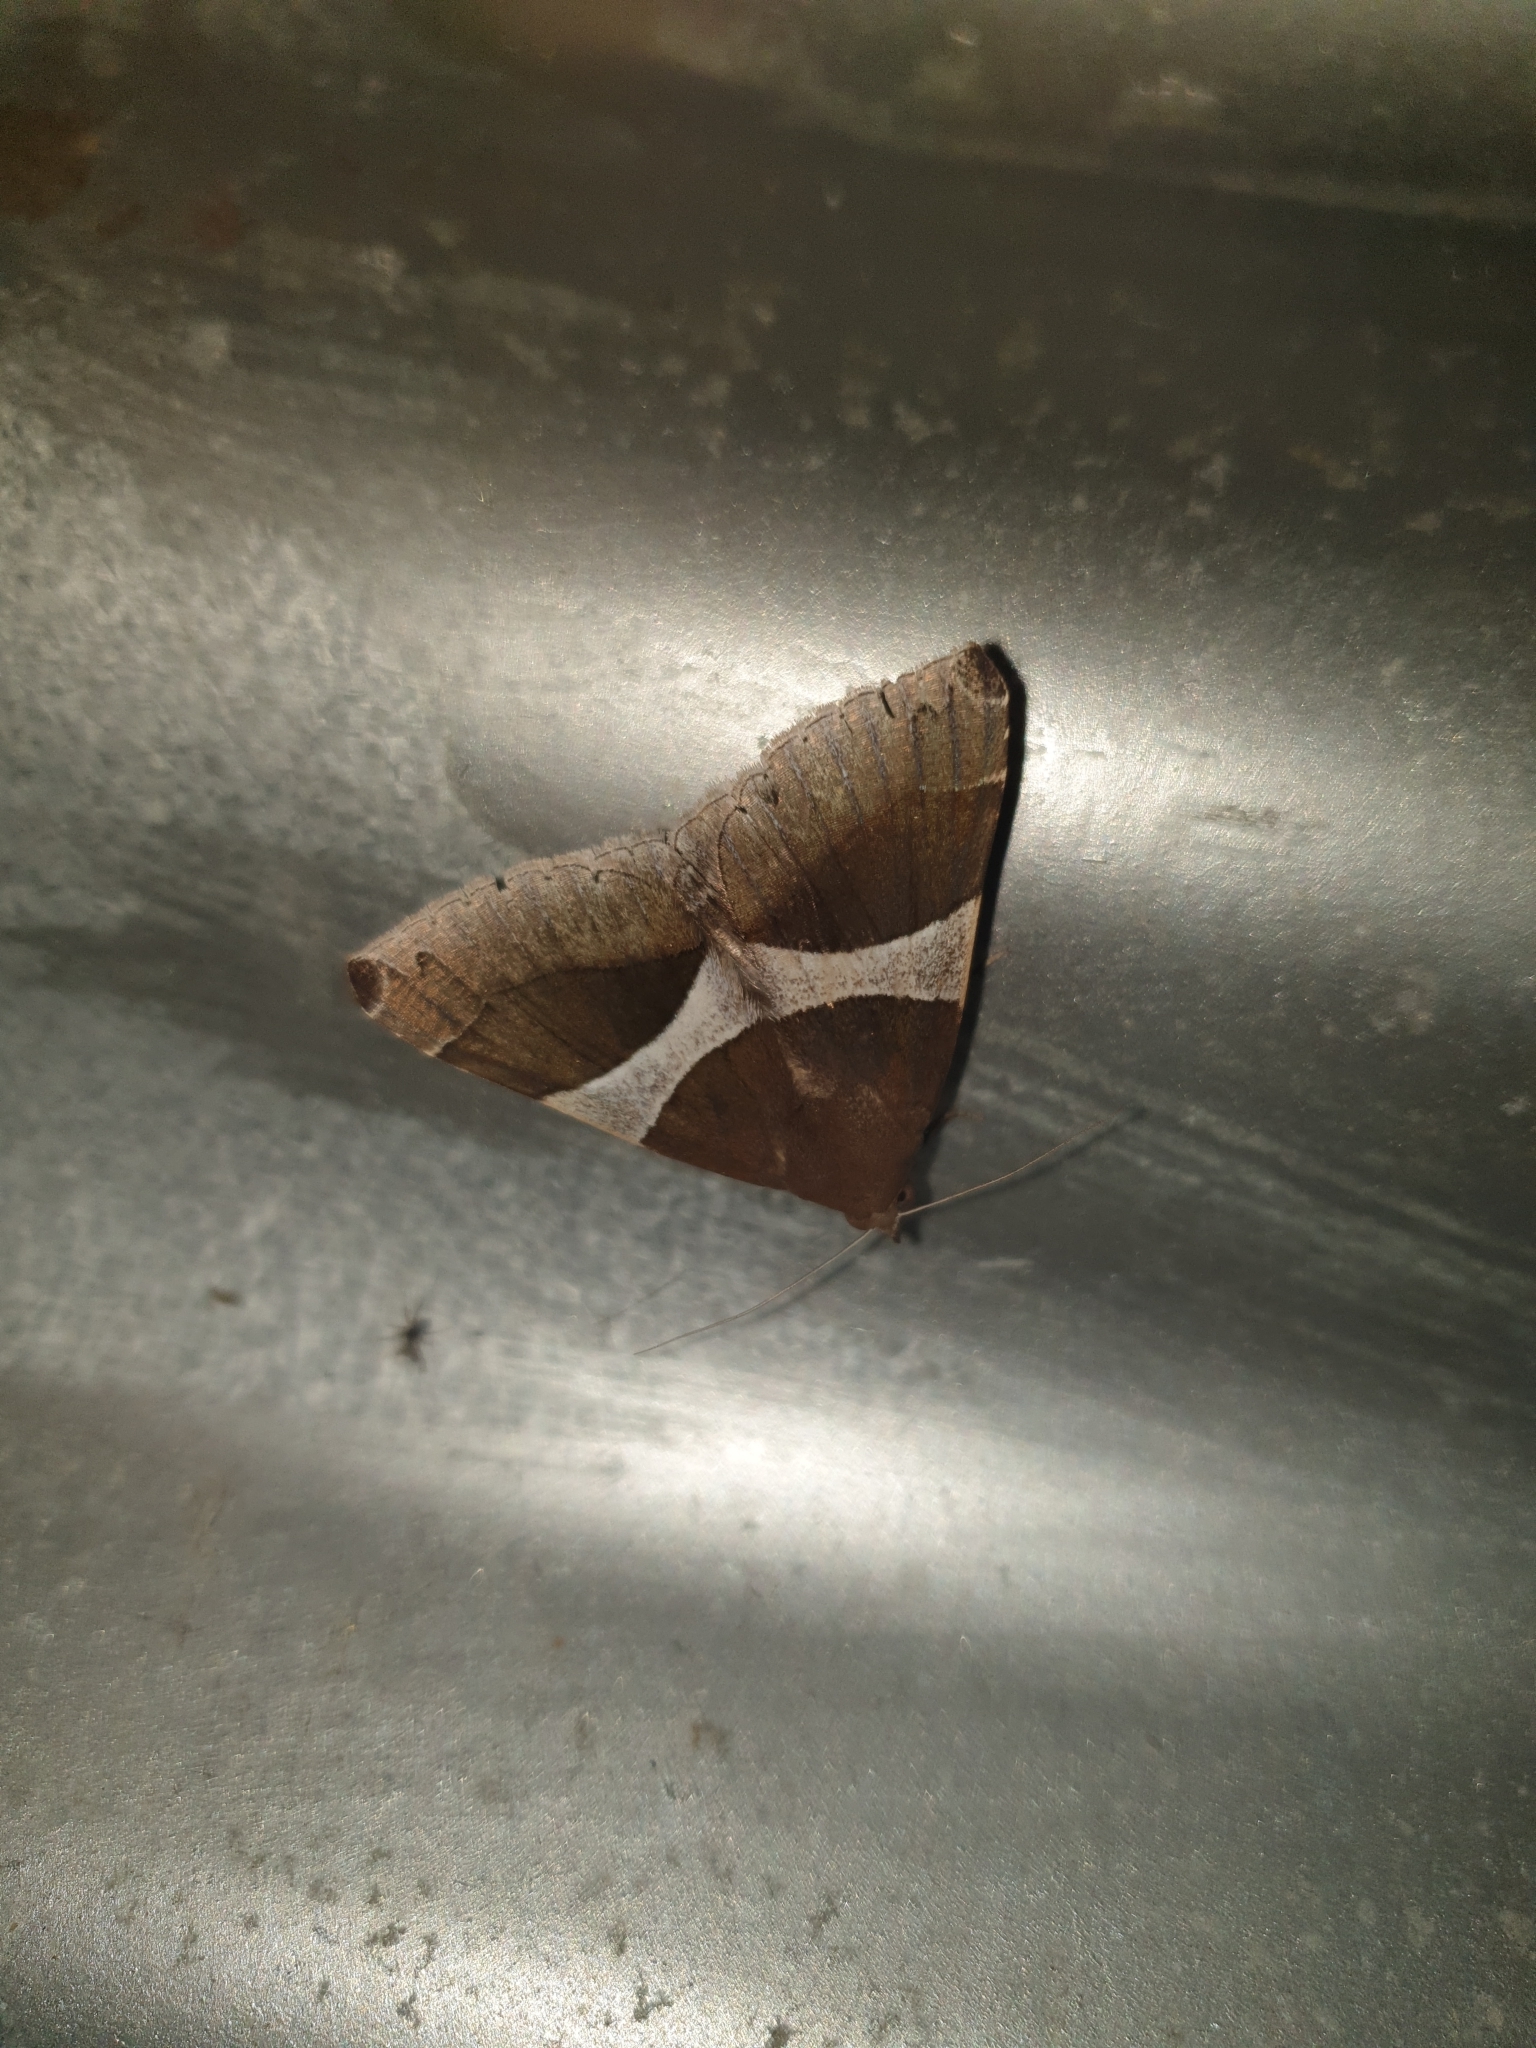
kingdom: Animalia
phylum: Arthropoda
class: Insecta
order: Lepidoptera
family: Erebidae
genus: Dysgonia
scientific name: Dysgonia constricta
